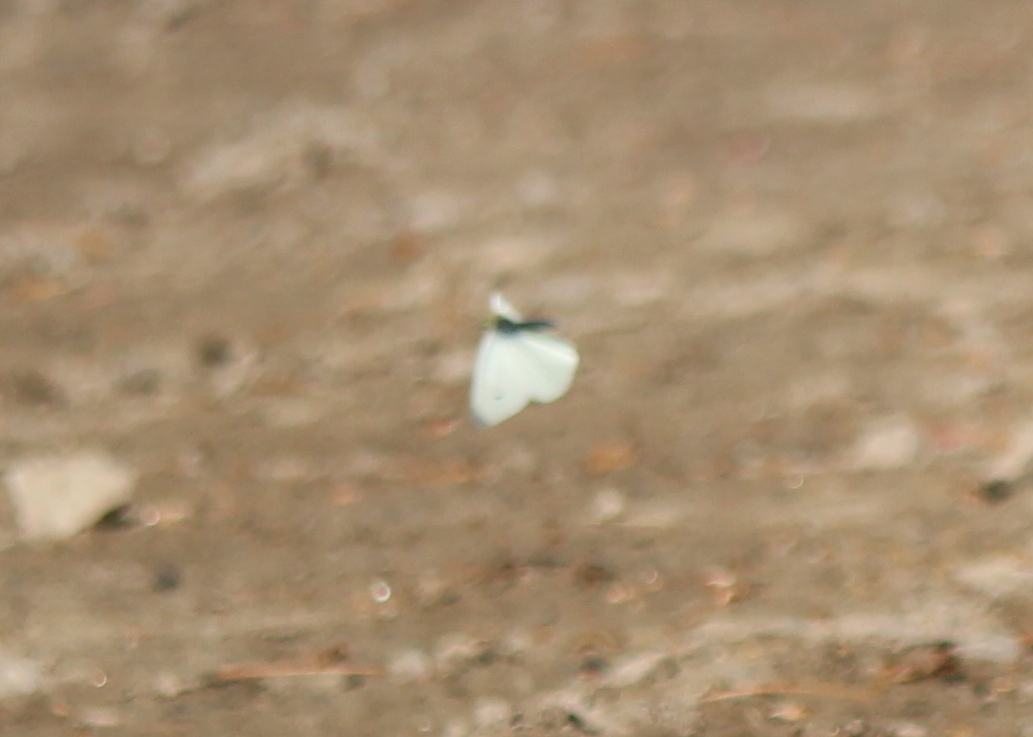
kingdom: Animalia
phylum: Arthropoda
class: Insecta
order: Lepidoptera
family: Pieridae
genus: Pieris
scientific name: Pieris rapae
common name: Small white
